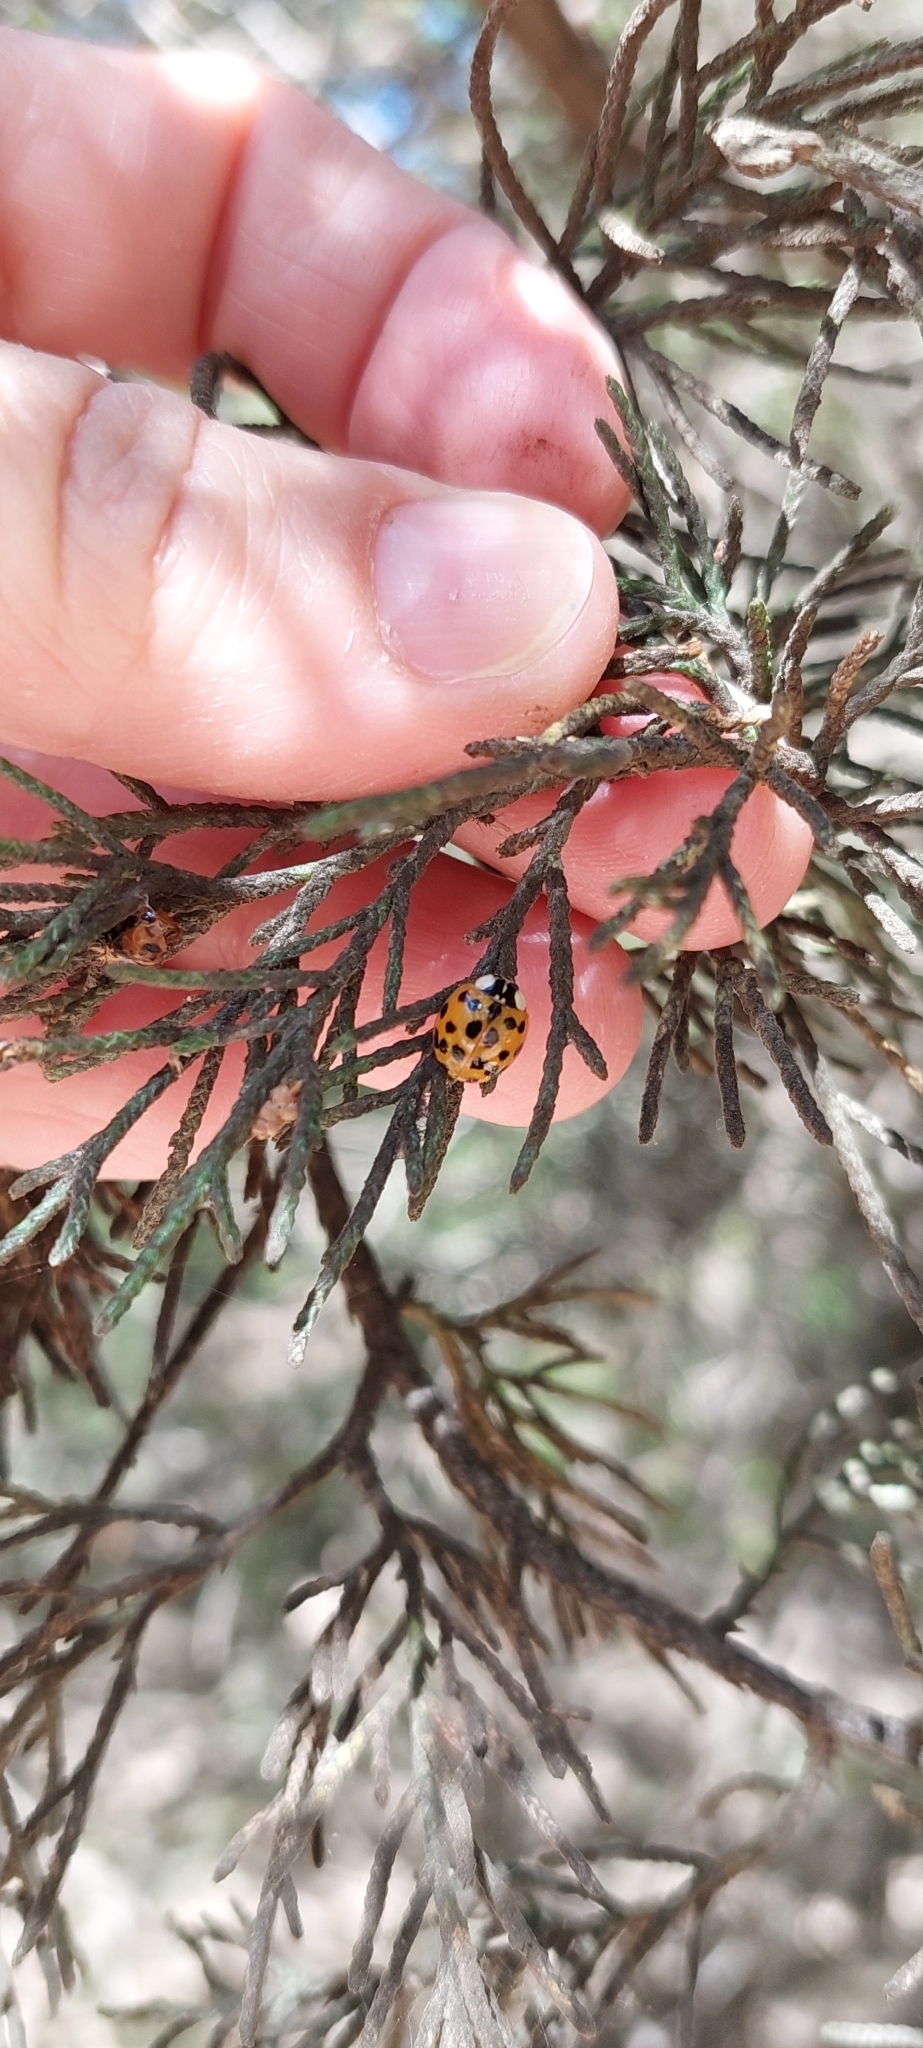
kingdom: Animalia
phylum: Arthropoda
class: Insecta
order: Coleoptera
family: Coccinellidae
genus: Harmonia
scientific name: Harmonia axyridis
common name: Harlequin ladybird
